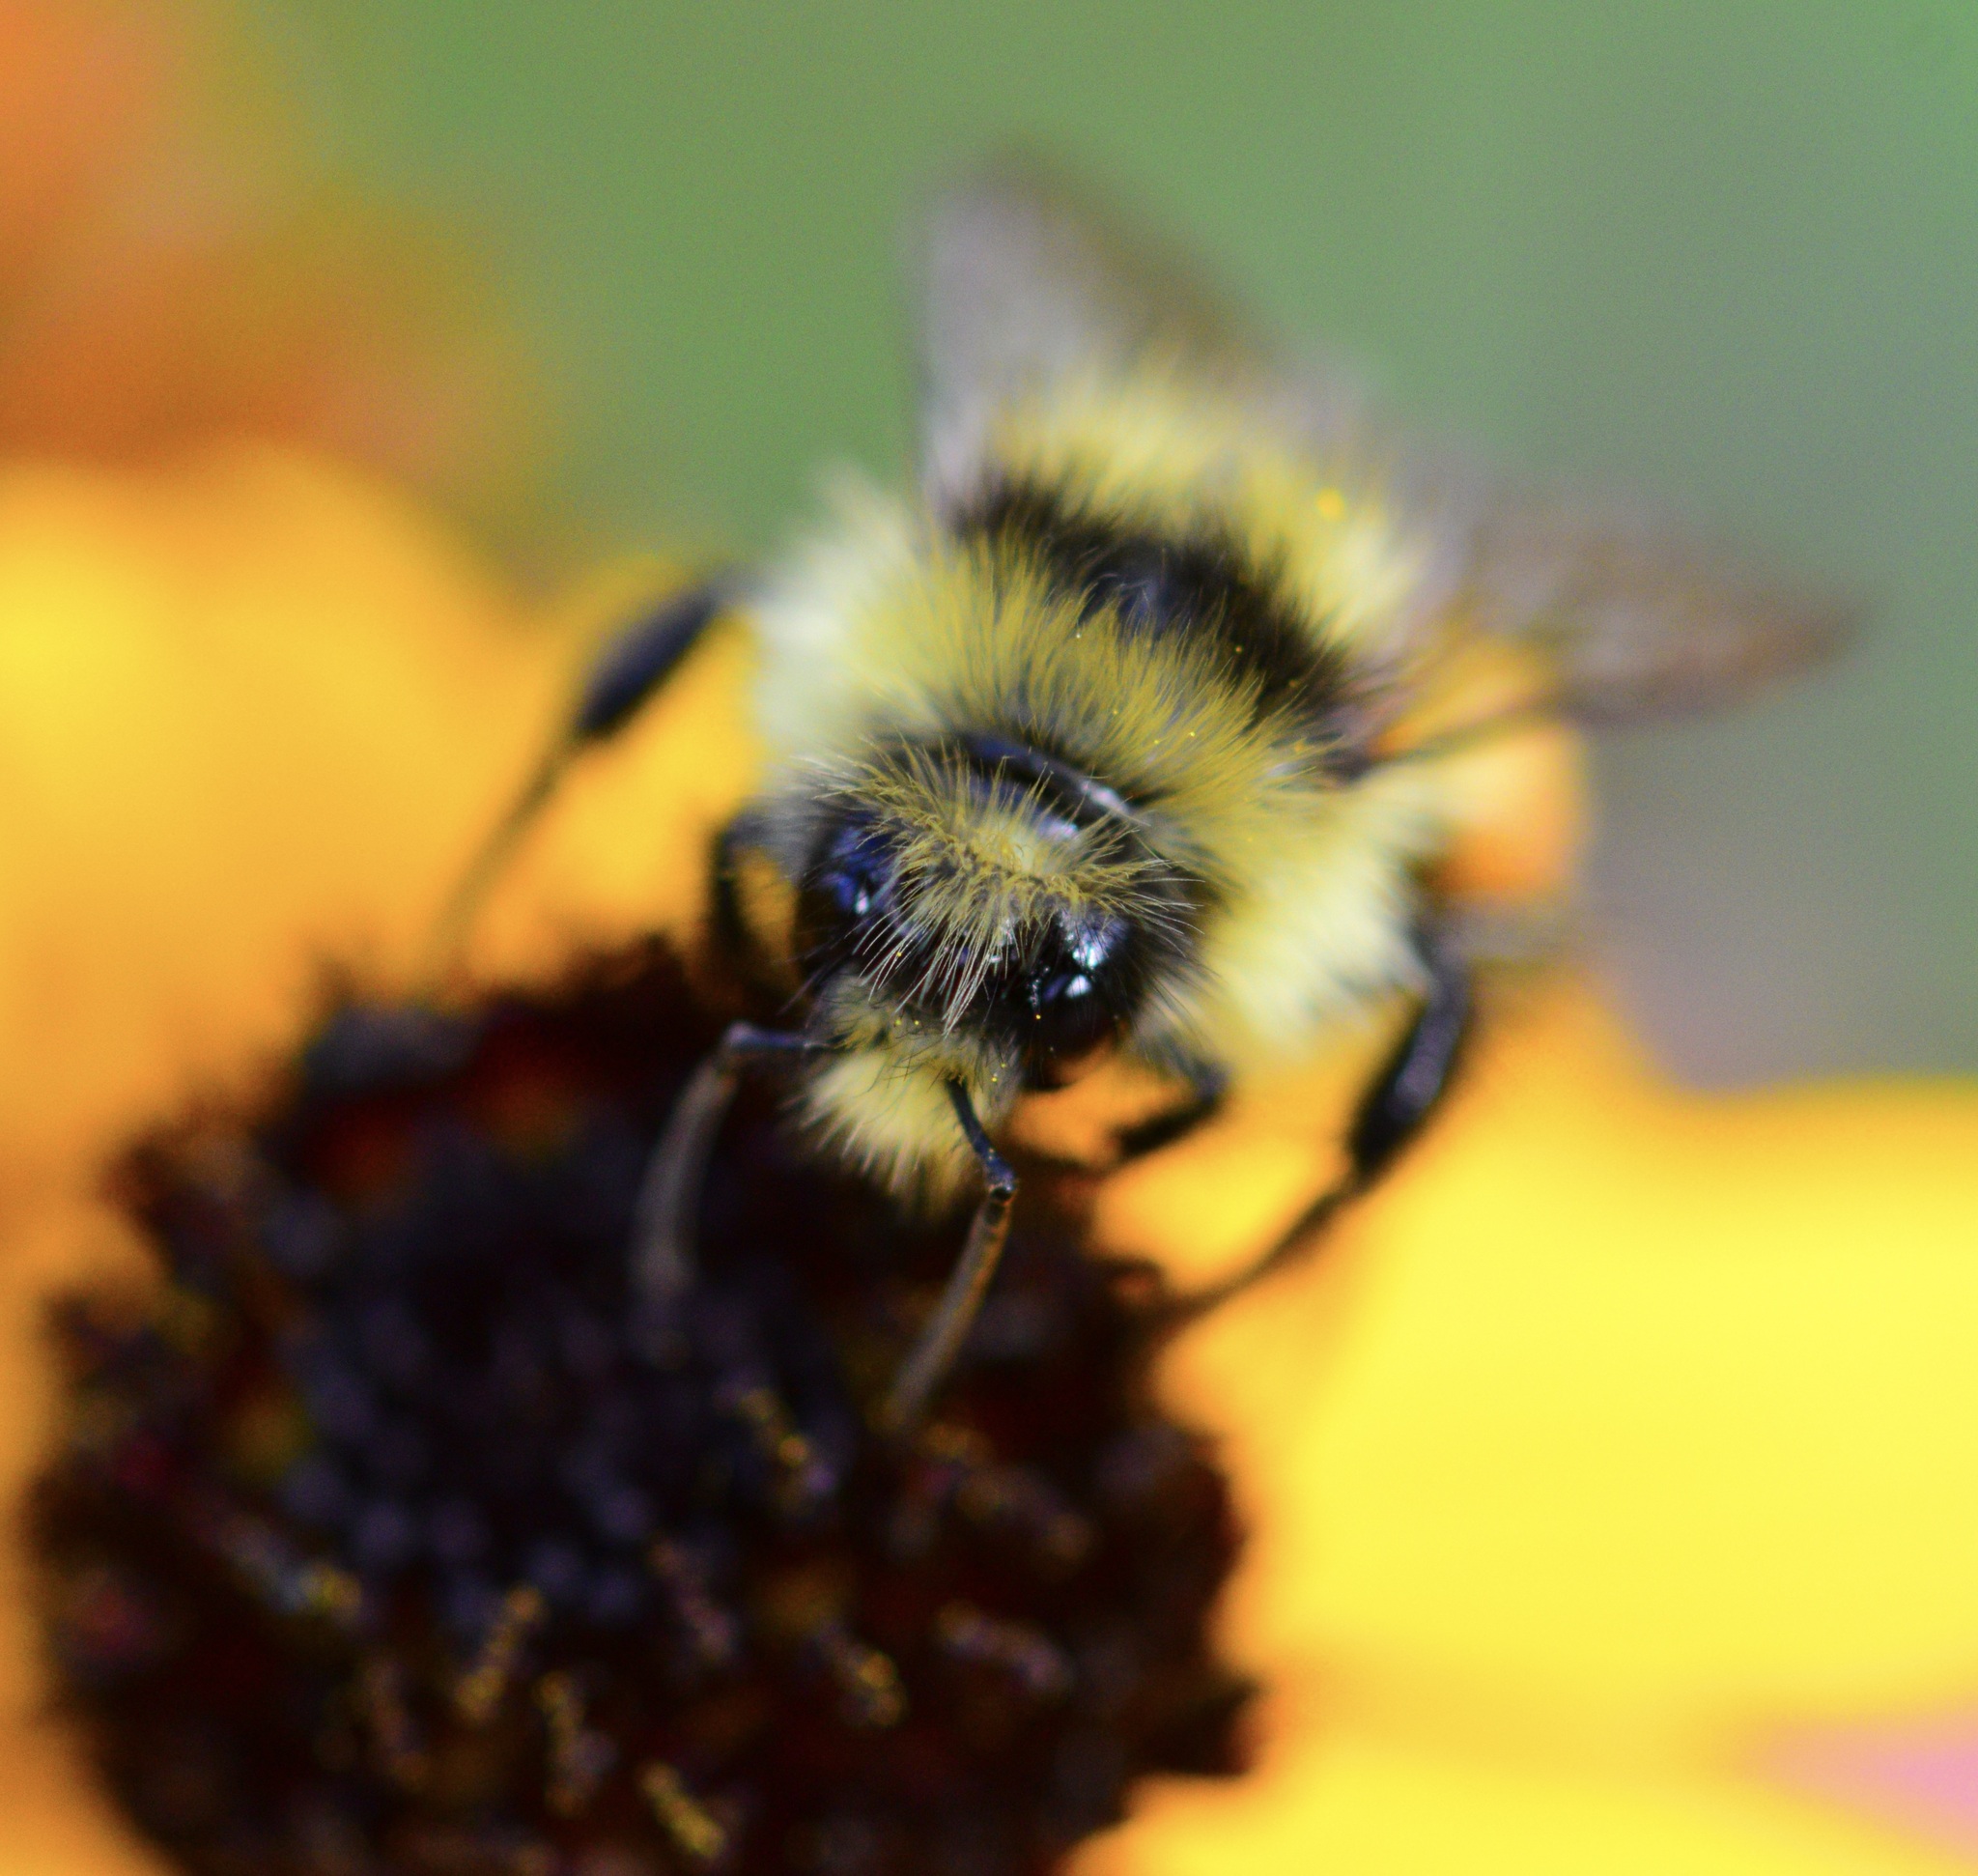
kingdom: Animalia
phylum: Arthropoda
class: Insecta
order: Hymenoptera
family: Apidae
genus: Bombus
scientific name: Bombus ternarius
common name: Tri-colored bumble bee
